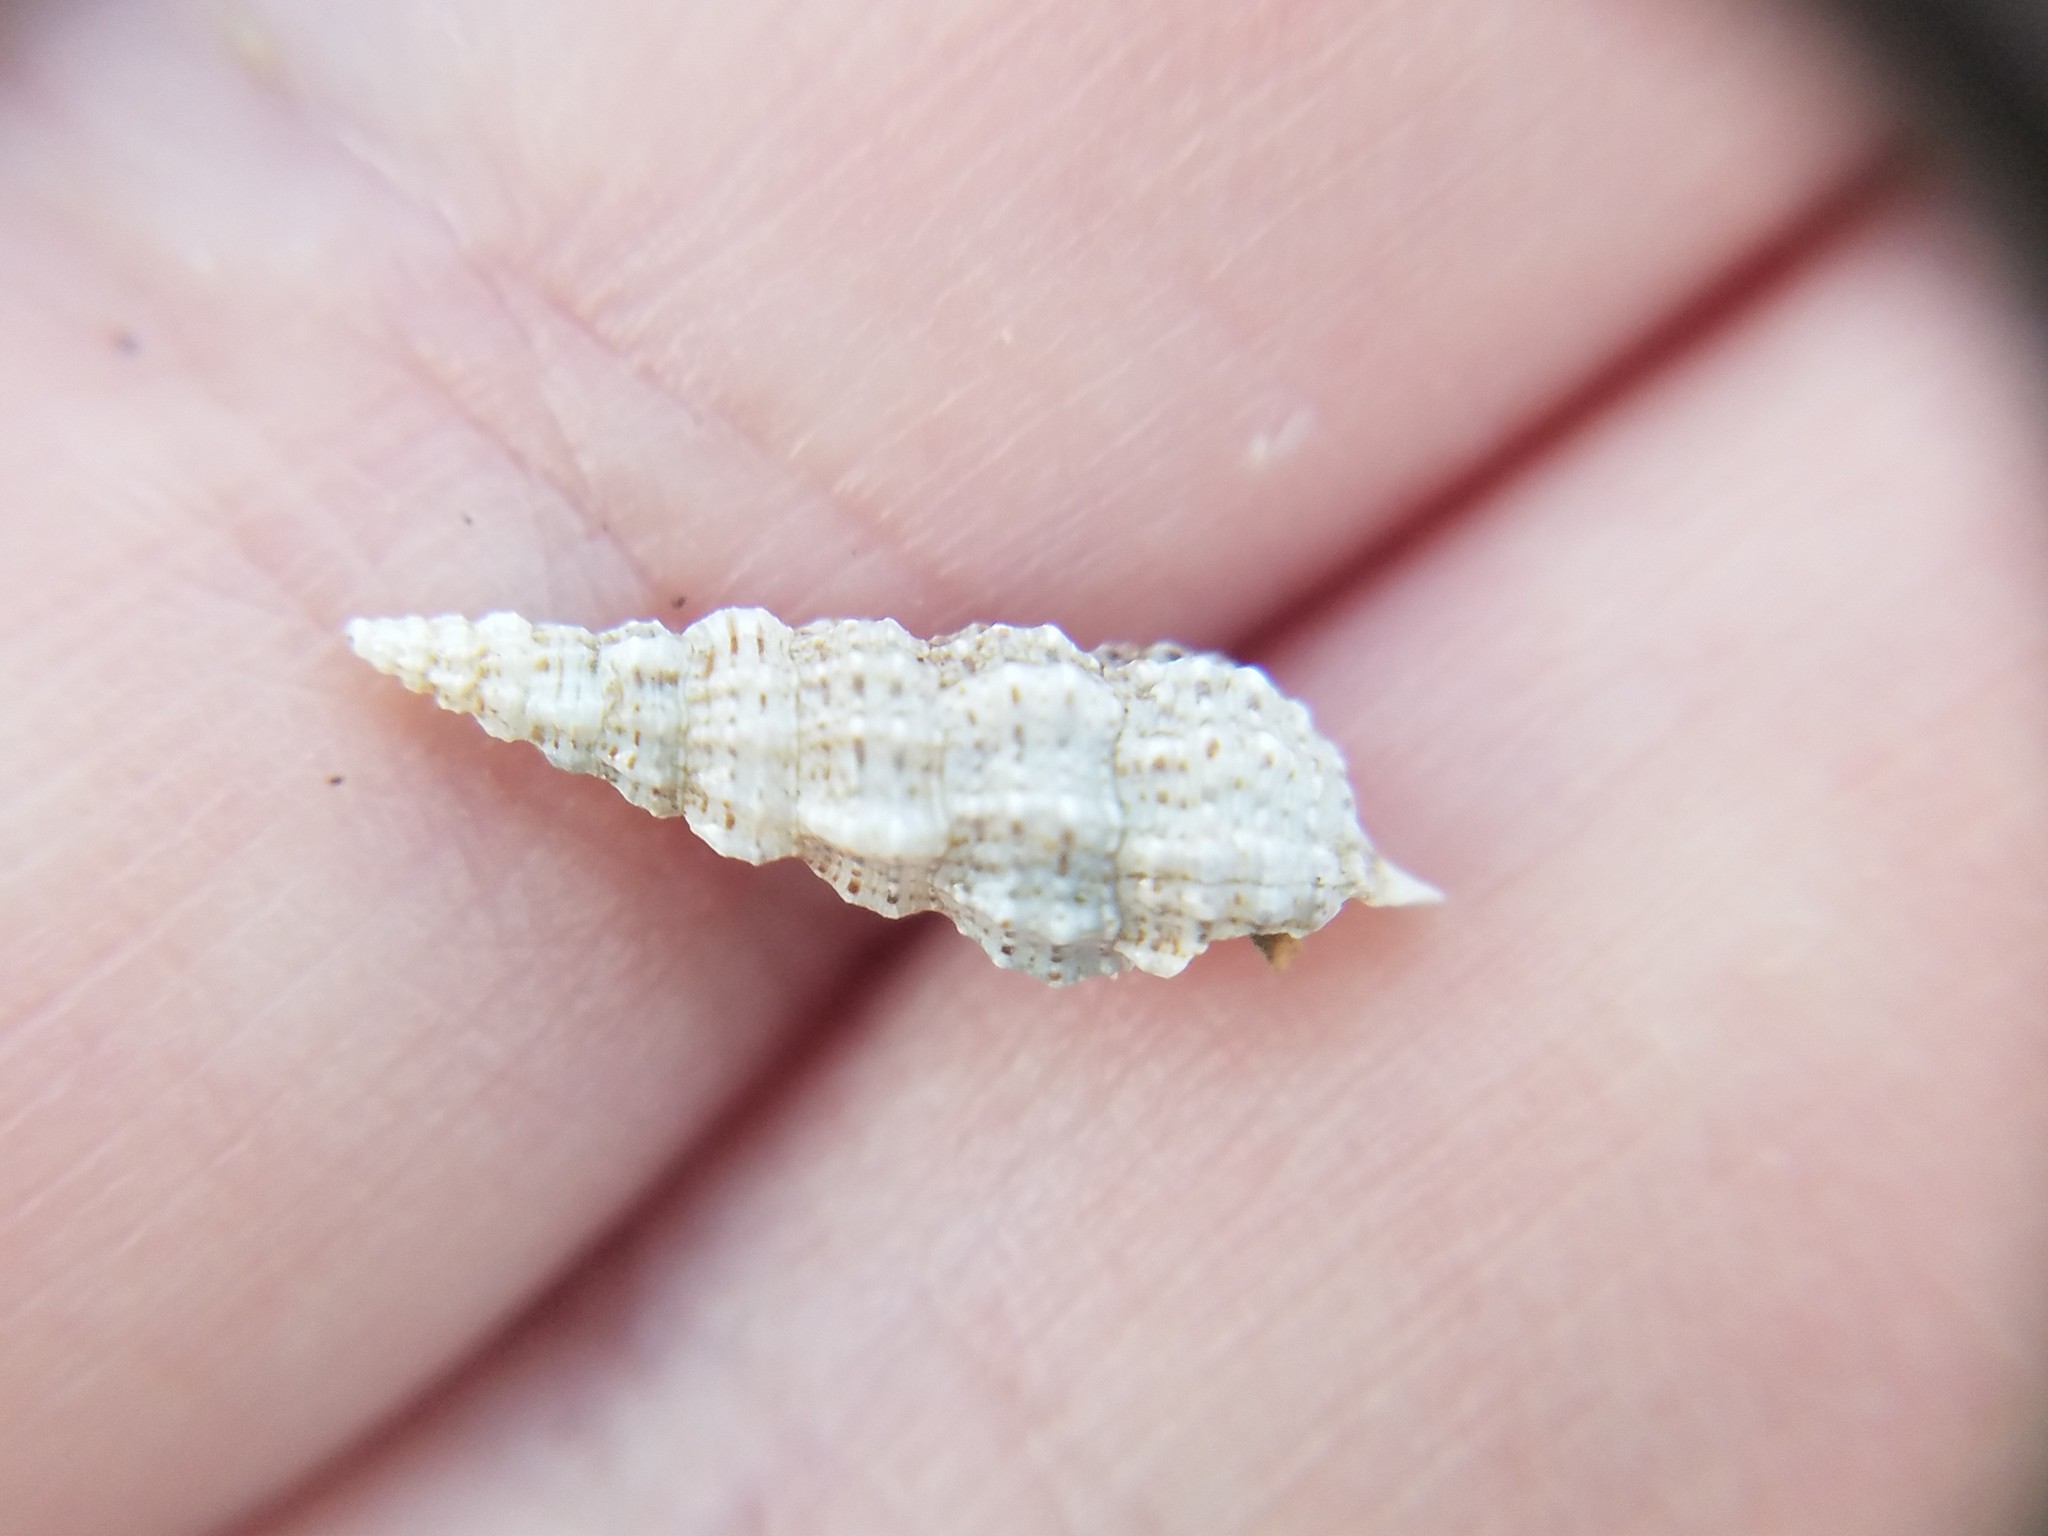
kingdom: Animalia
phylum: Mollusca
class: Gastropoda
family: Cerithiidae
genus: Cerithium
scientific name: Cerithium muscarum
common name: Fly-specked cerith
